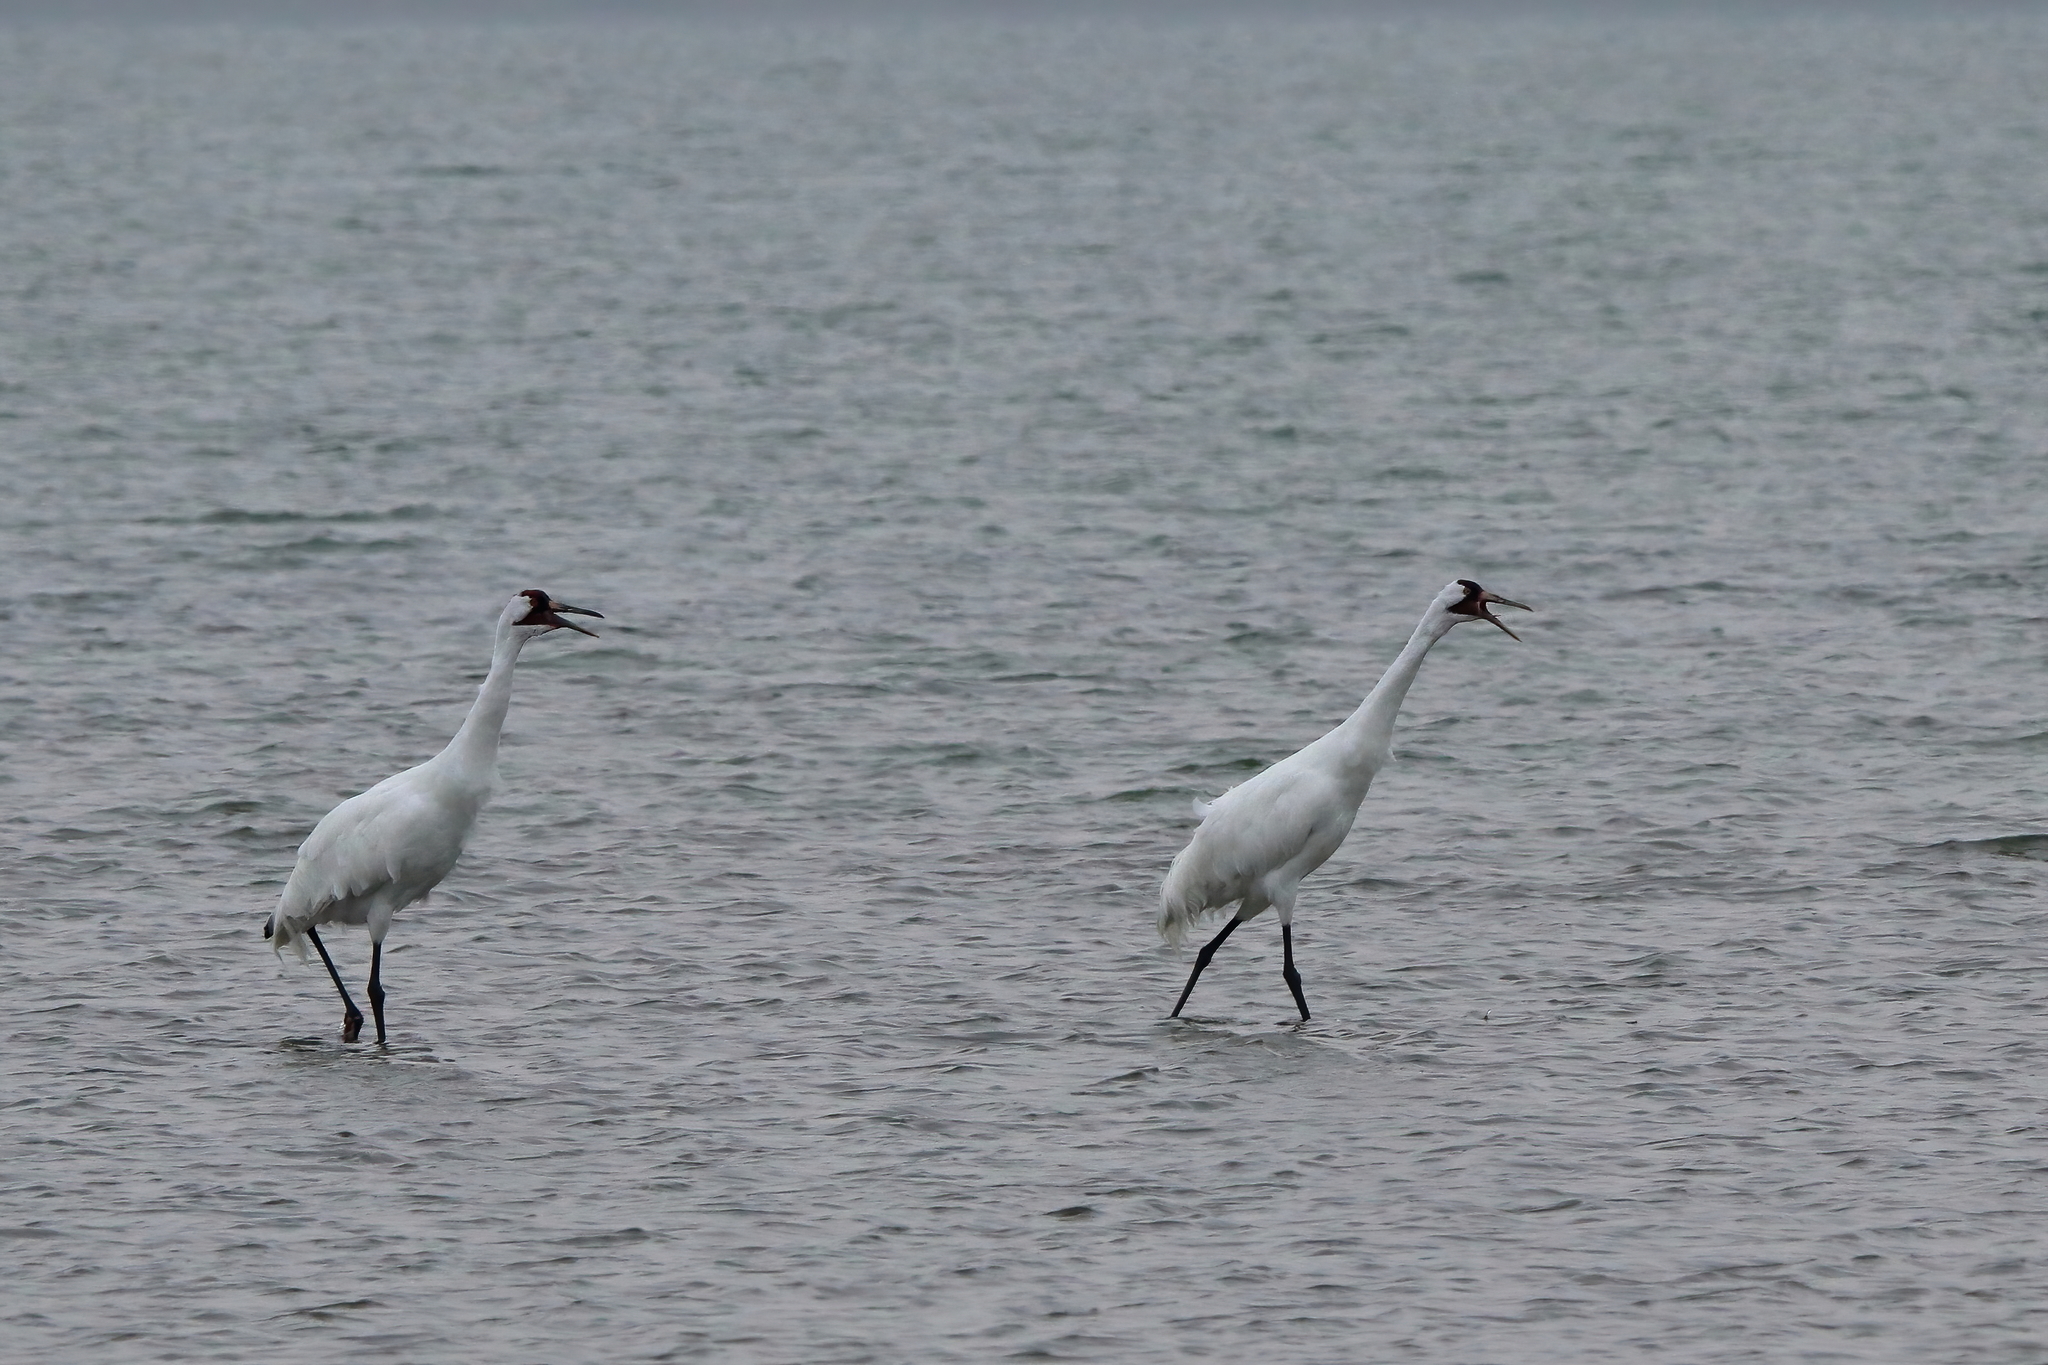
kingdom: Animalia
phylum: Chordata
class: Aves
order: Gruiformes
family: Gruidae
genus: Grus
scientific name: Grus americana
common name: Whooping crane
